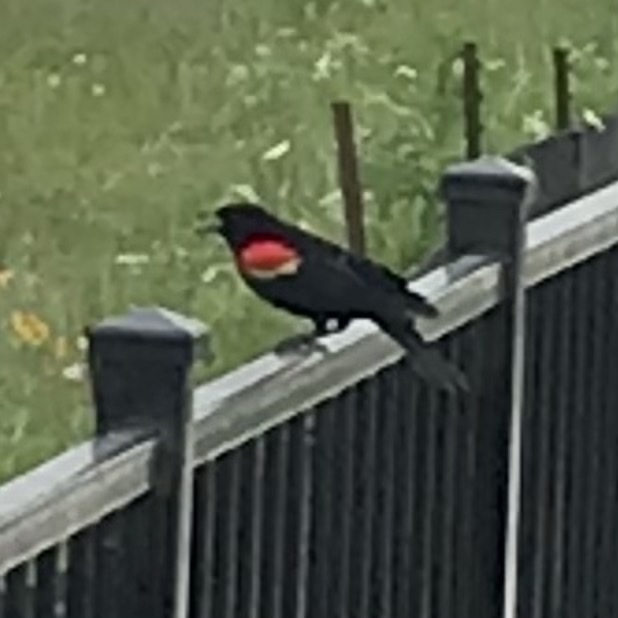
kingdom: Animalia
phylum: Chordata
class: Aves
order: Passeriformes
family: Icteridae
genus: Agelaius
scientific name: Agelaius phoeniceus
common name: Red-winged blackbird
